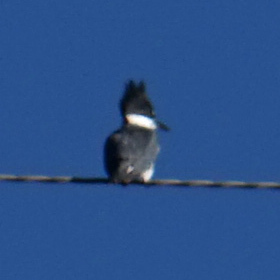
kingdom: Animalia
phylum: Chordata
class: Aves
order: Coraciiformes
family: Alcedinidae
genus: Megaceryle
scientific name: Megaceryle alcyon
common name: Belted kingfisher
